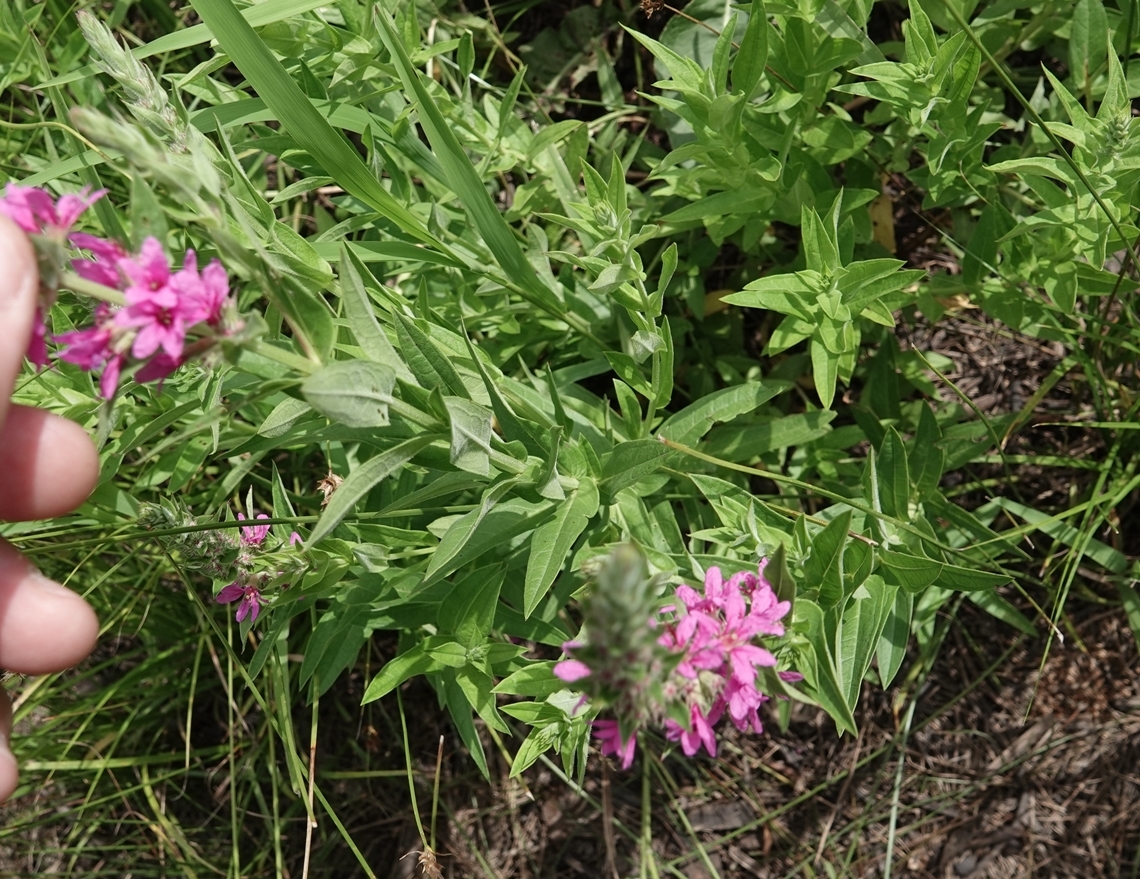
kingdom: Plantae
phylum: Tracheophyta
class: Magnoliopsida
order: Myrtales
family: Lythraceae
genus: Lythrum
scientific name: Lythrum salicaria
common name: Purple loosestrife
